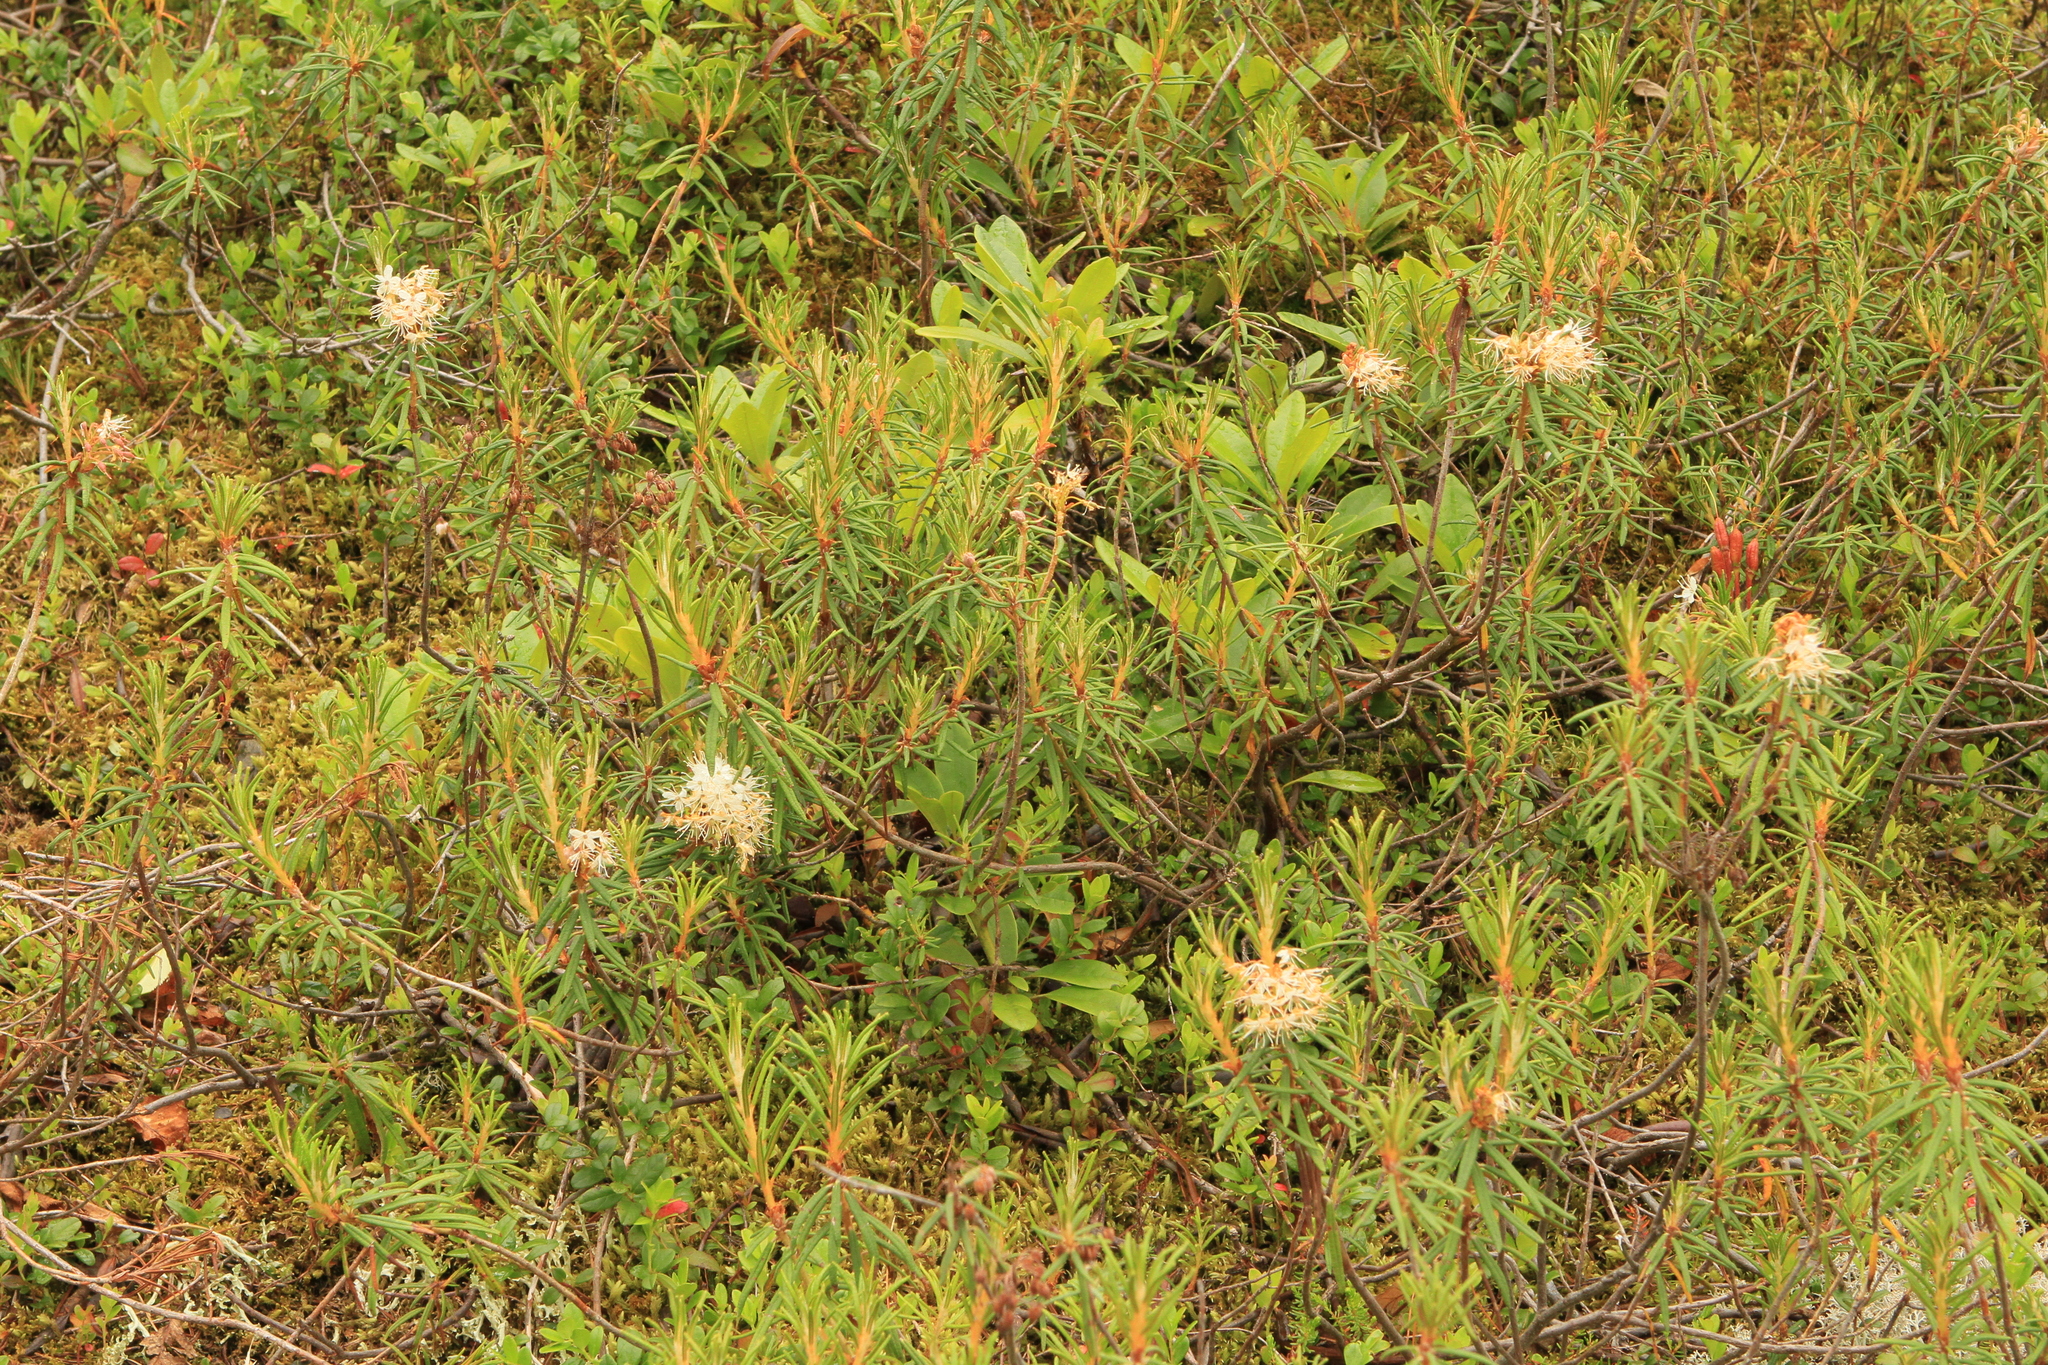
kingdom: Plantae
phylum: Tracheophyta
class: Magnoliopsida
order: Ericales
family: Ericaceae
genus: Rhododendron
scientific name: Rhododendron tomentosum
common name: Marsh labrador tea
